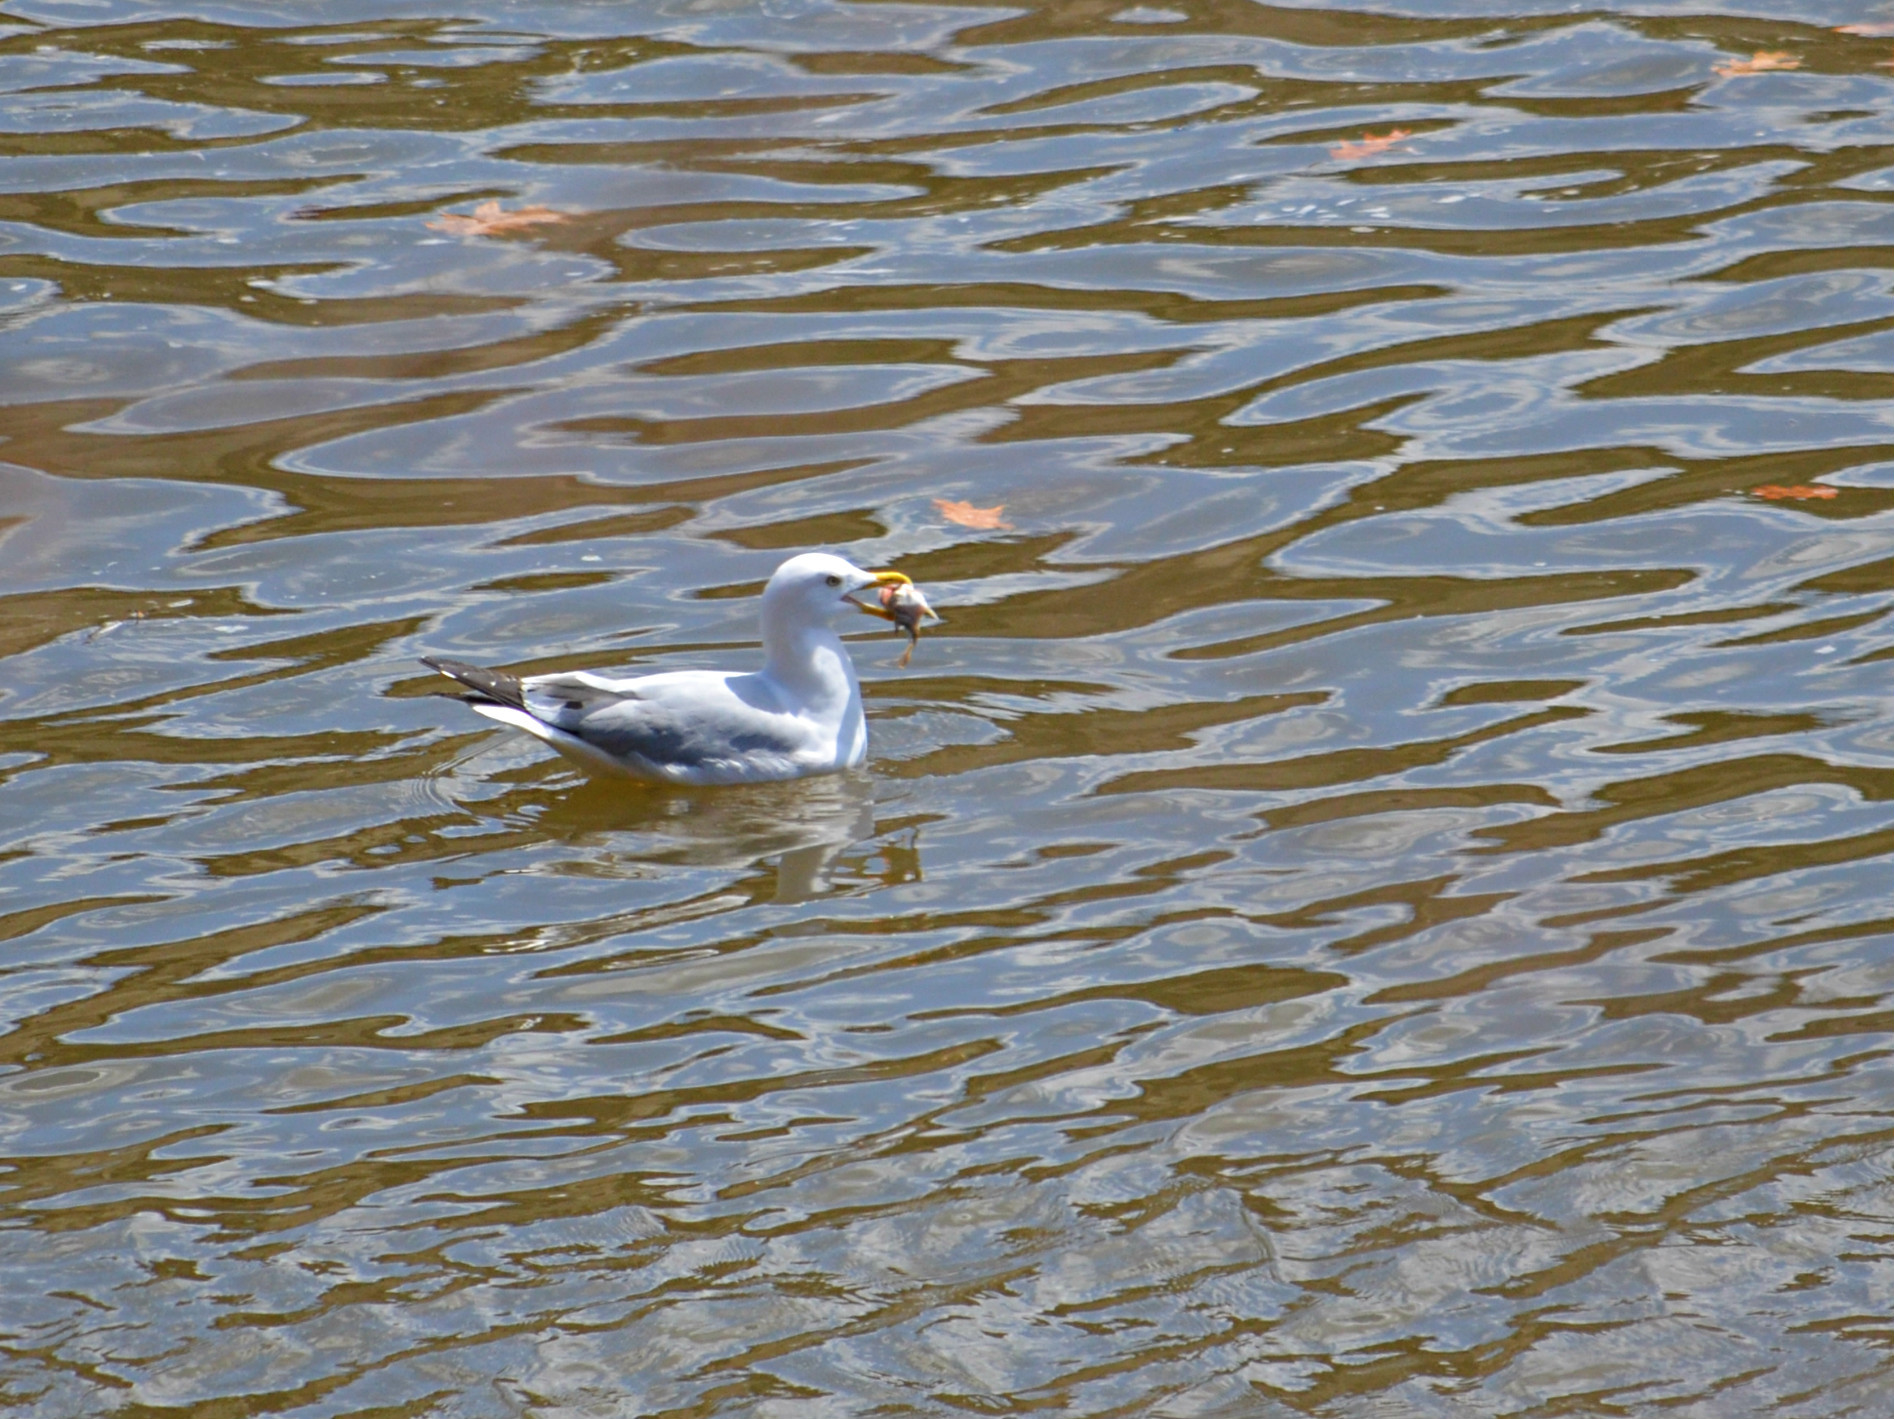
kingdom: Animalia
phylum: Chordata
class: Aves
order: Charadriiformes
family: Laridae
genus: Larus
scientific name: Larus argentatus
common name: Herring gull
